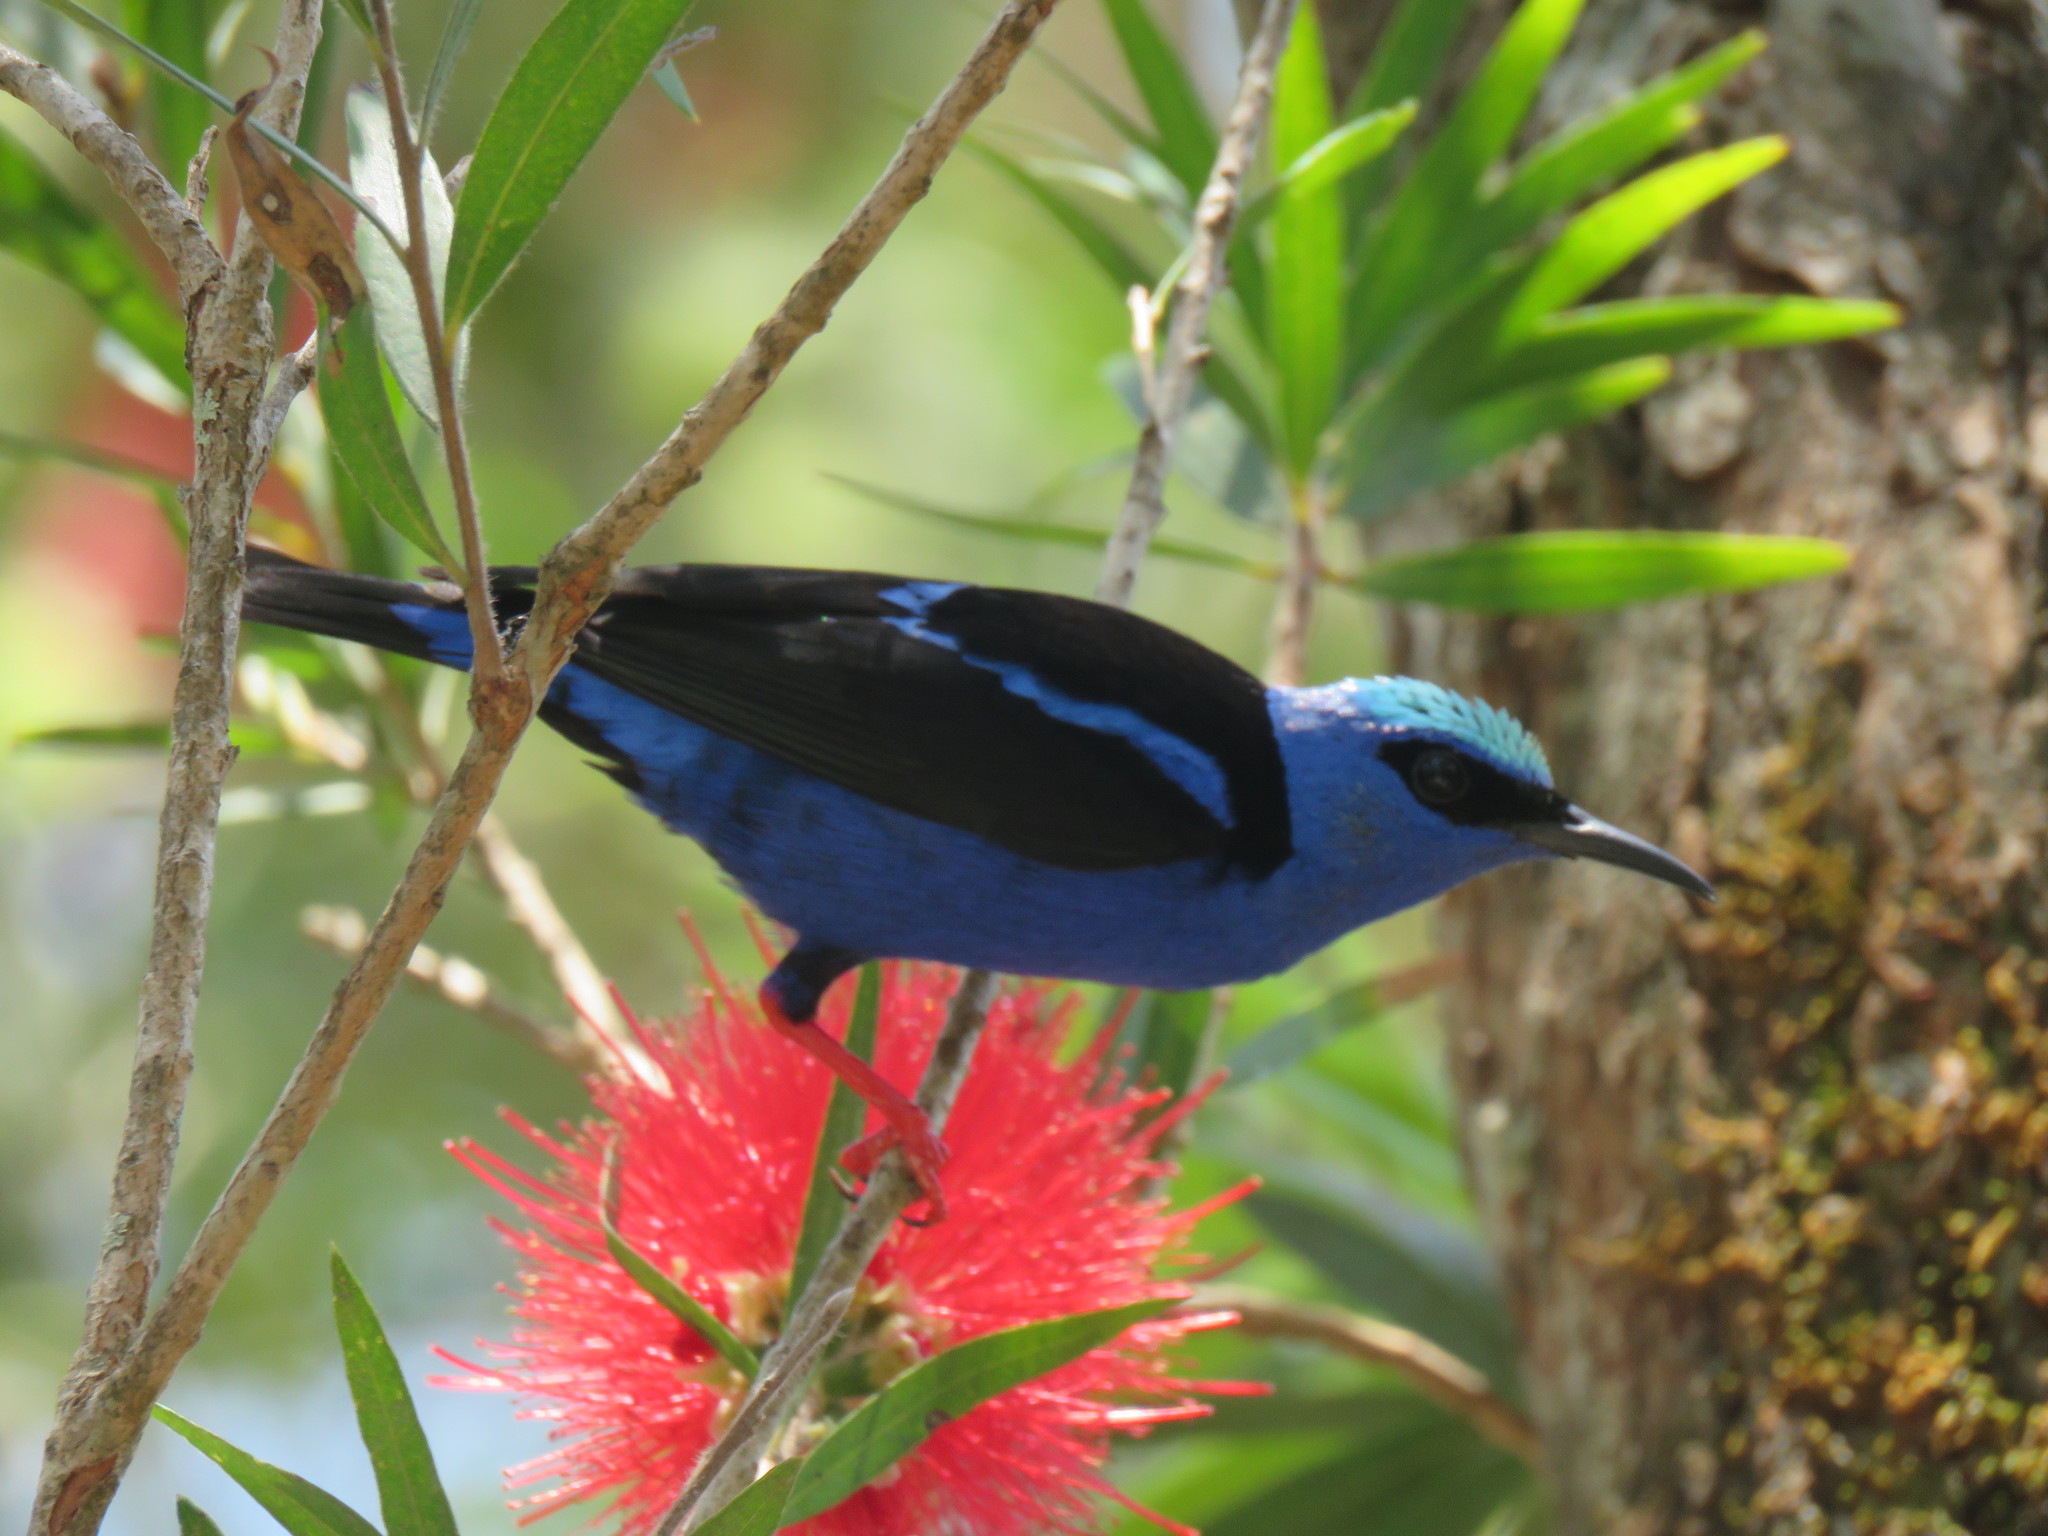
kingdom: Animalia
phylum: Chordata
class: Aves
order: Passeriformes
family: Thraupidae
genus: Cyanerpes
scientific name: Cyanerpes cyaneus
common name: Red-legged honeycreeper
